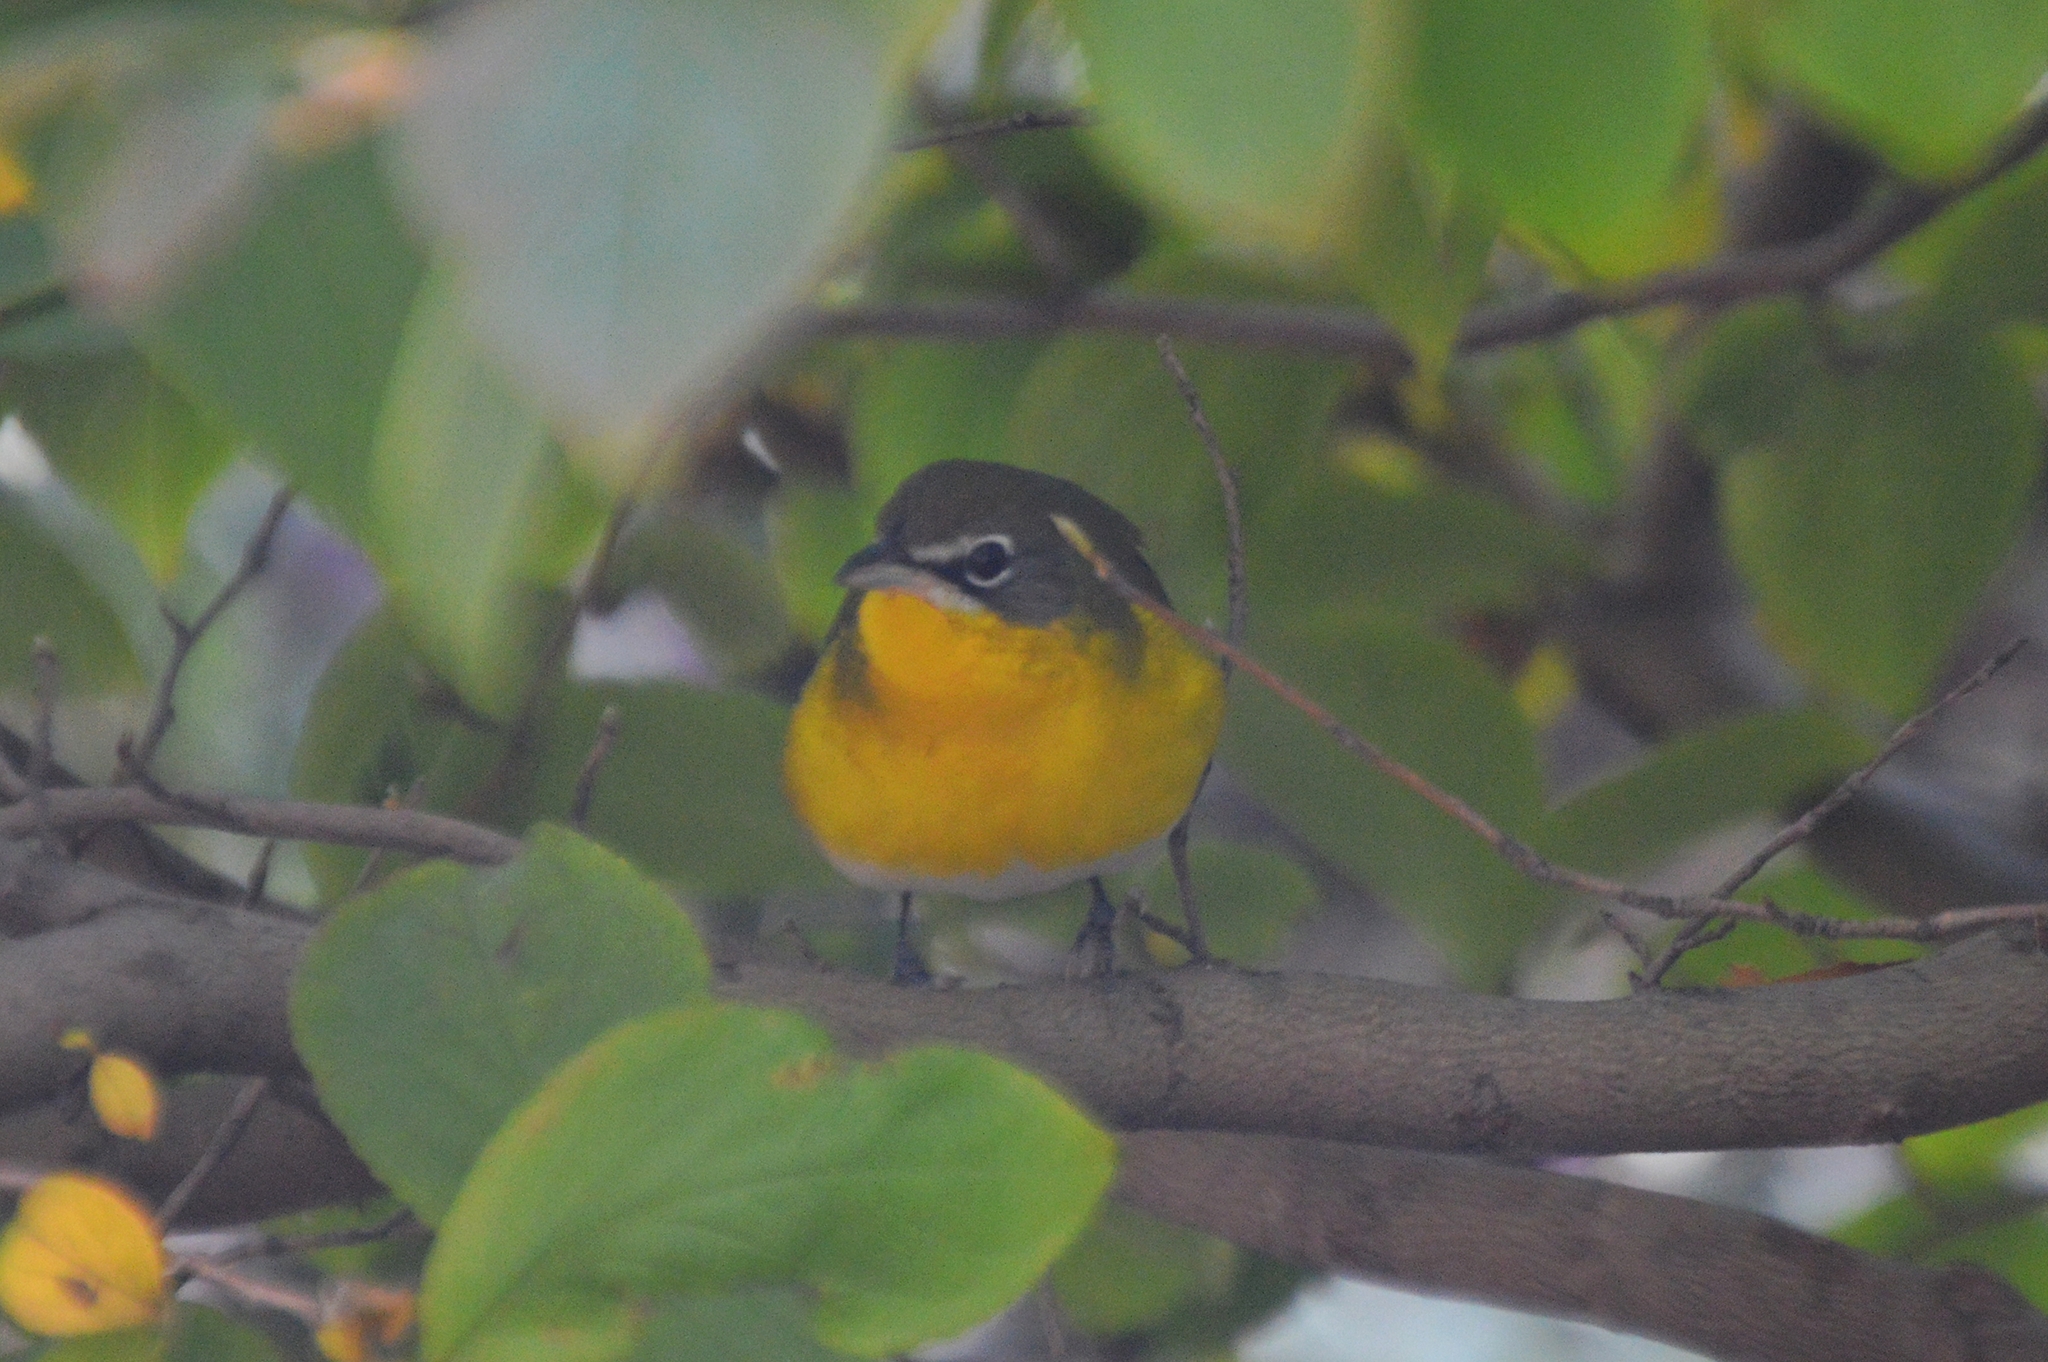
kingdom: Animalia
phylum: Chordata
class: Aves
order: Passeriformes
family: Parulidae
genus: Icteria
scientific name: Icteria virens
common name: Yellow-breasted chat
